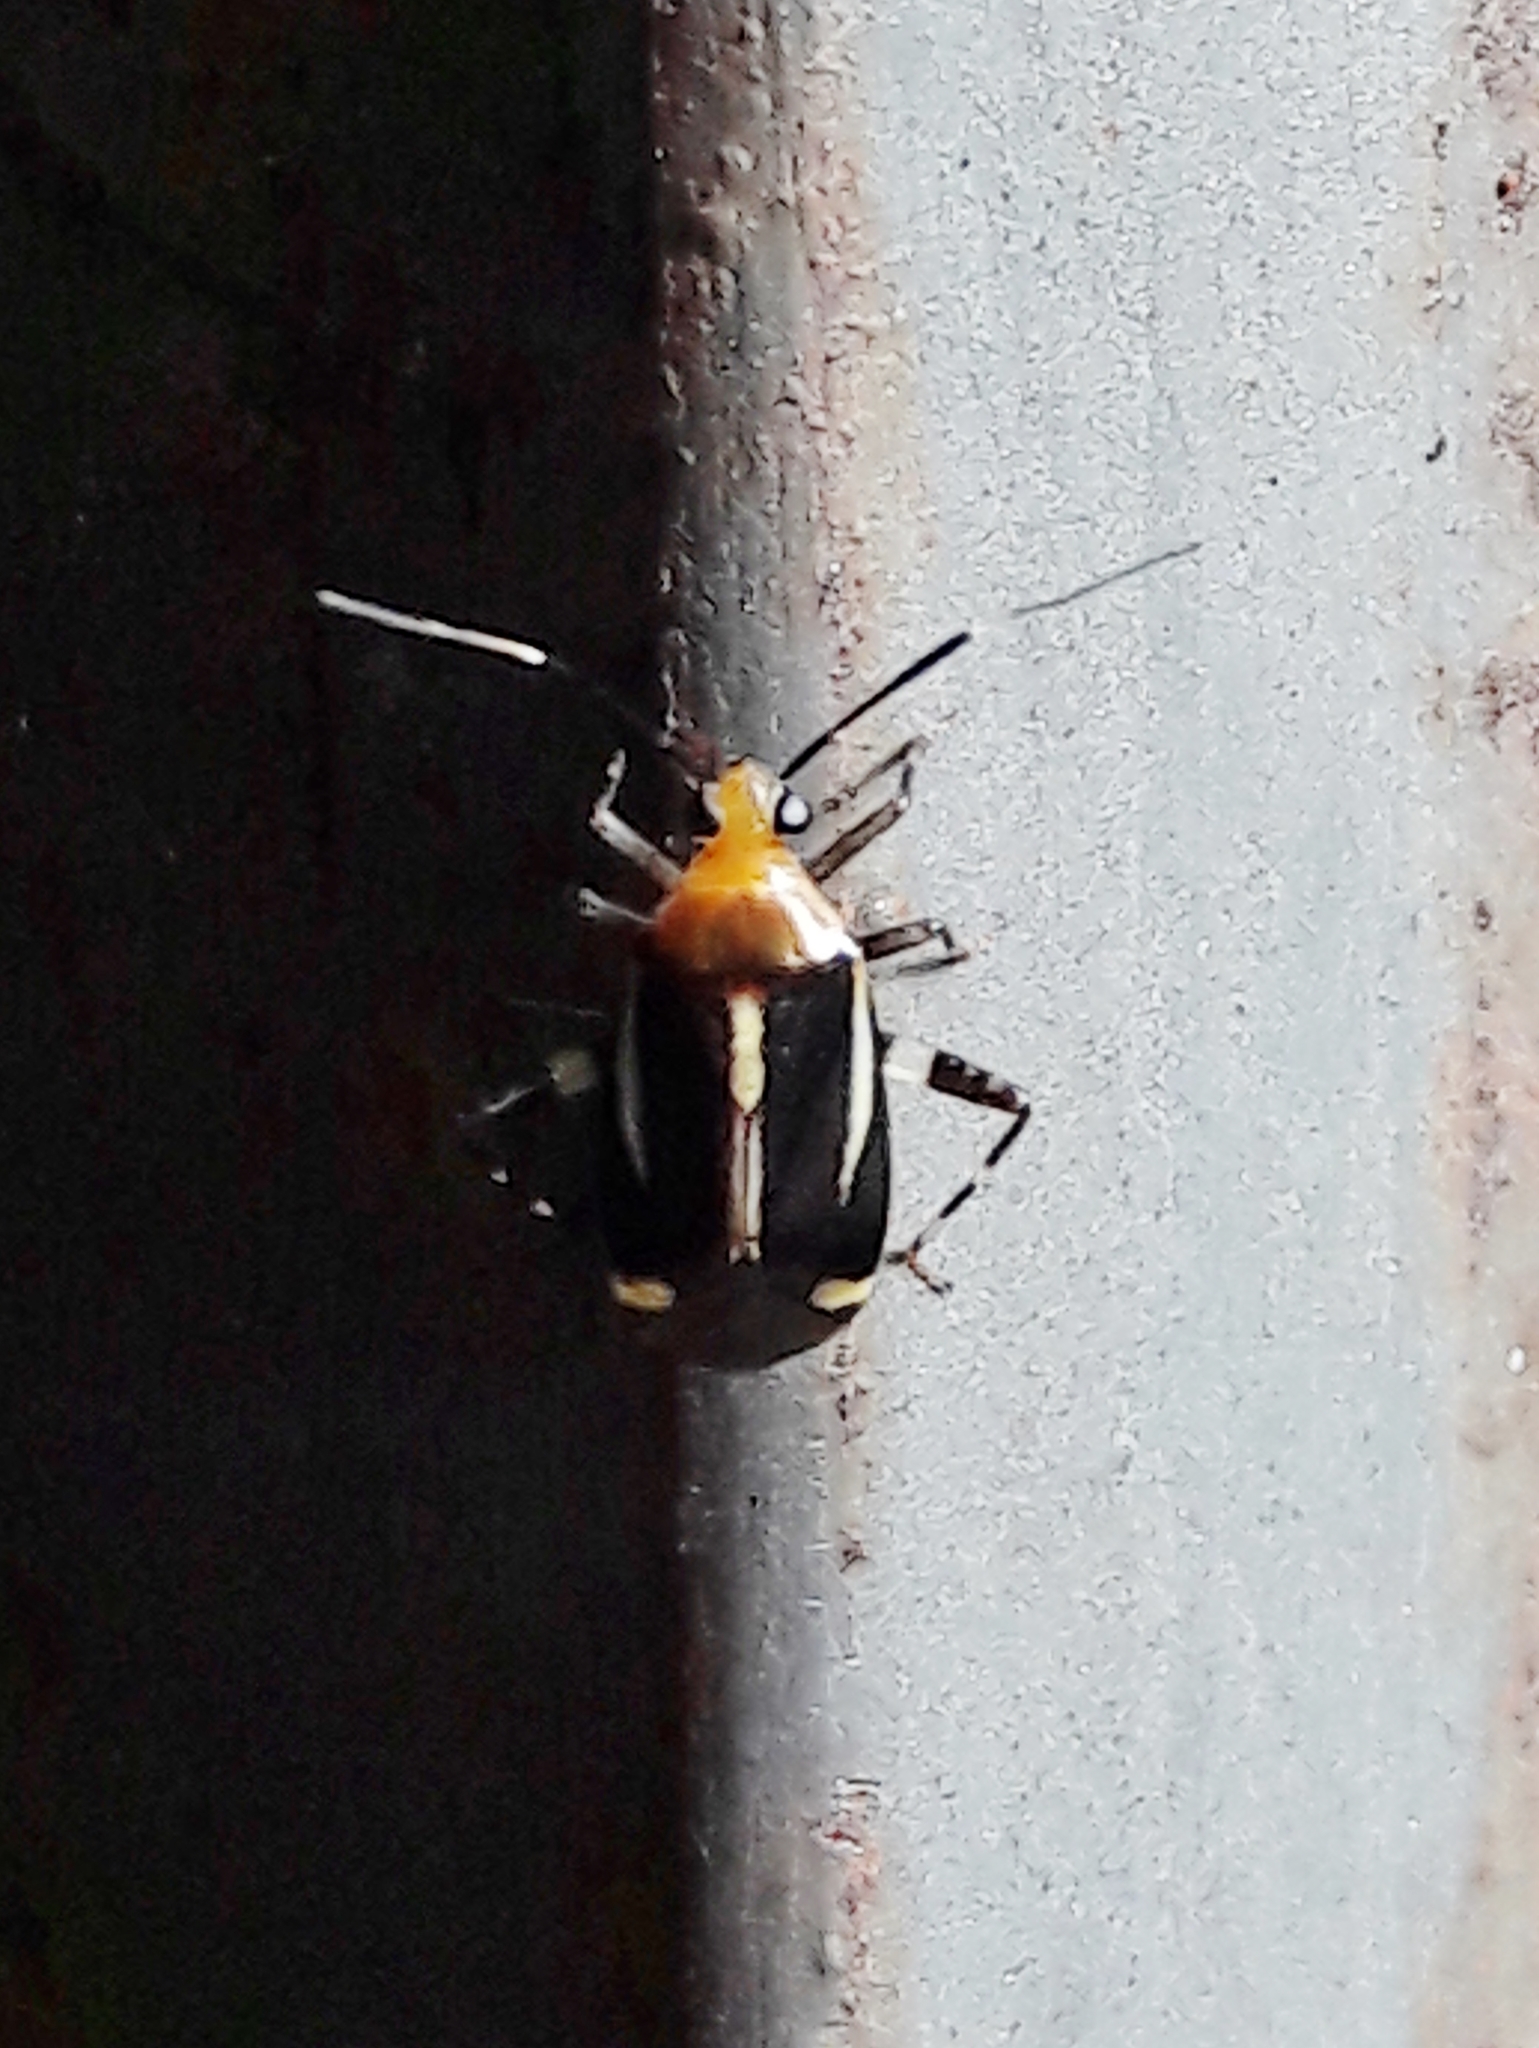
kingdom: Animalia
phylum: Arthropoda
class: Insecta
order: Hemiptera
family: Miridae
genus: Horciasinus
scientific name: Horciasinus signoreti
